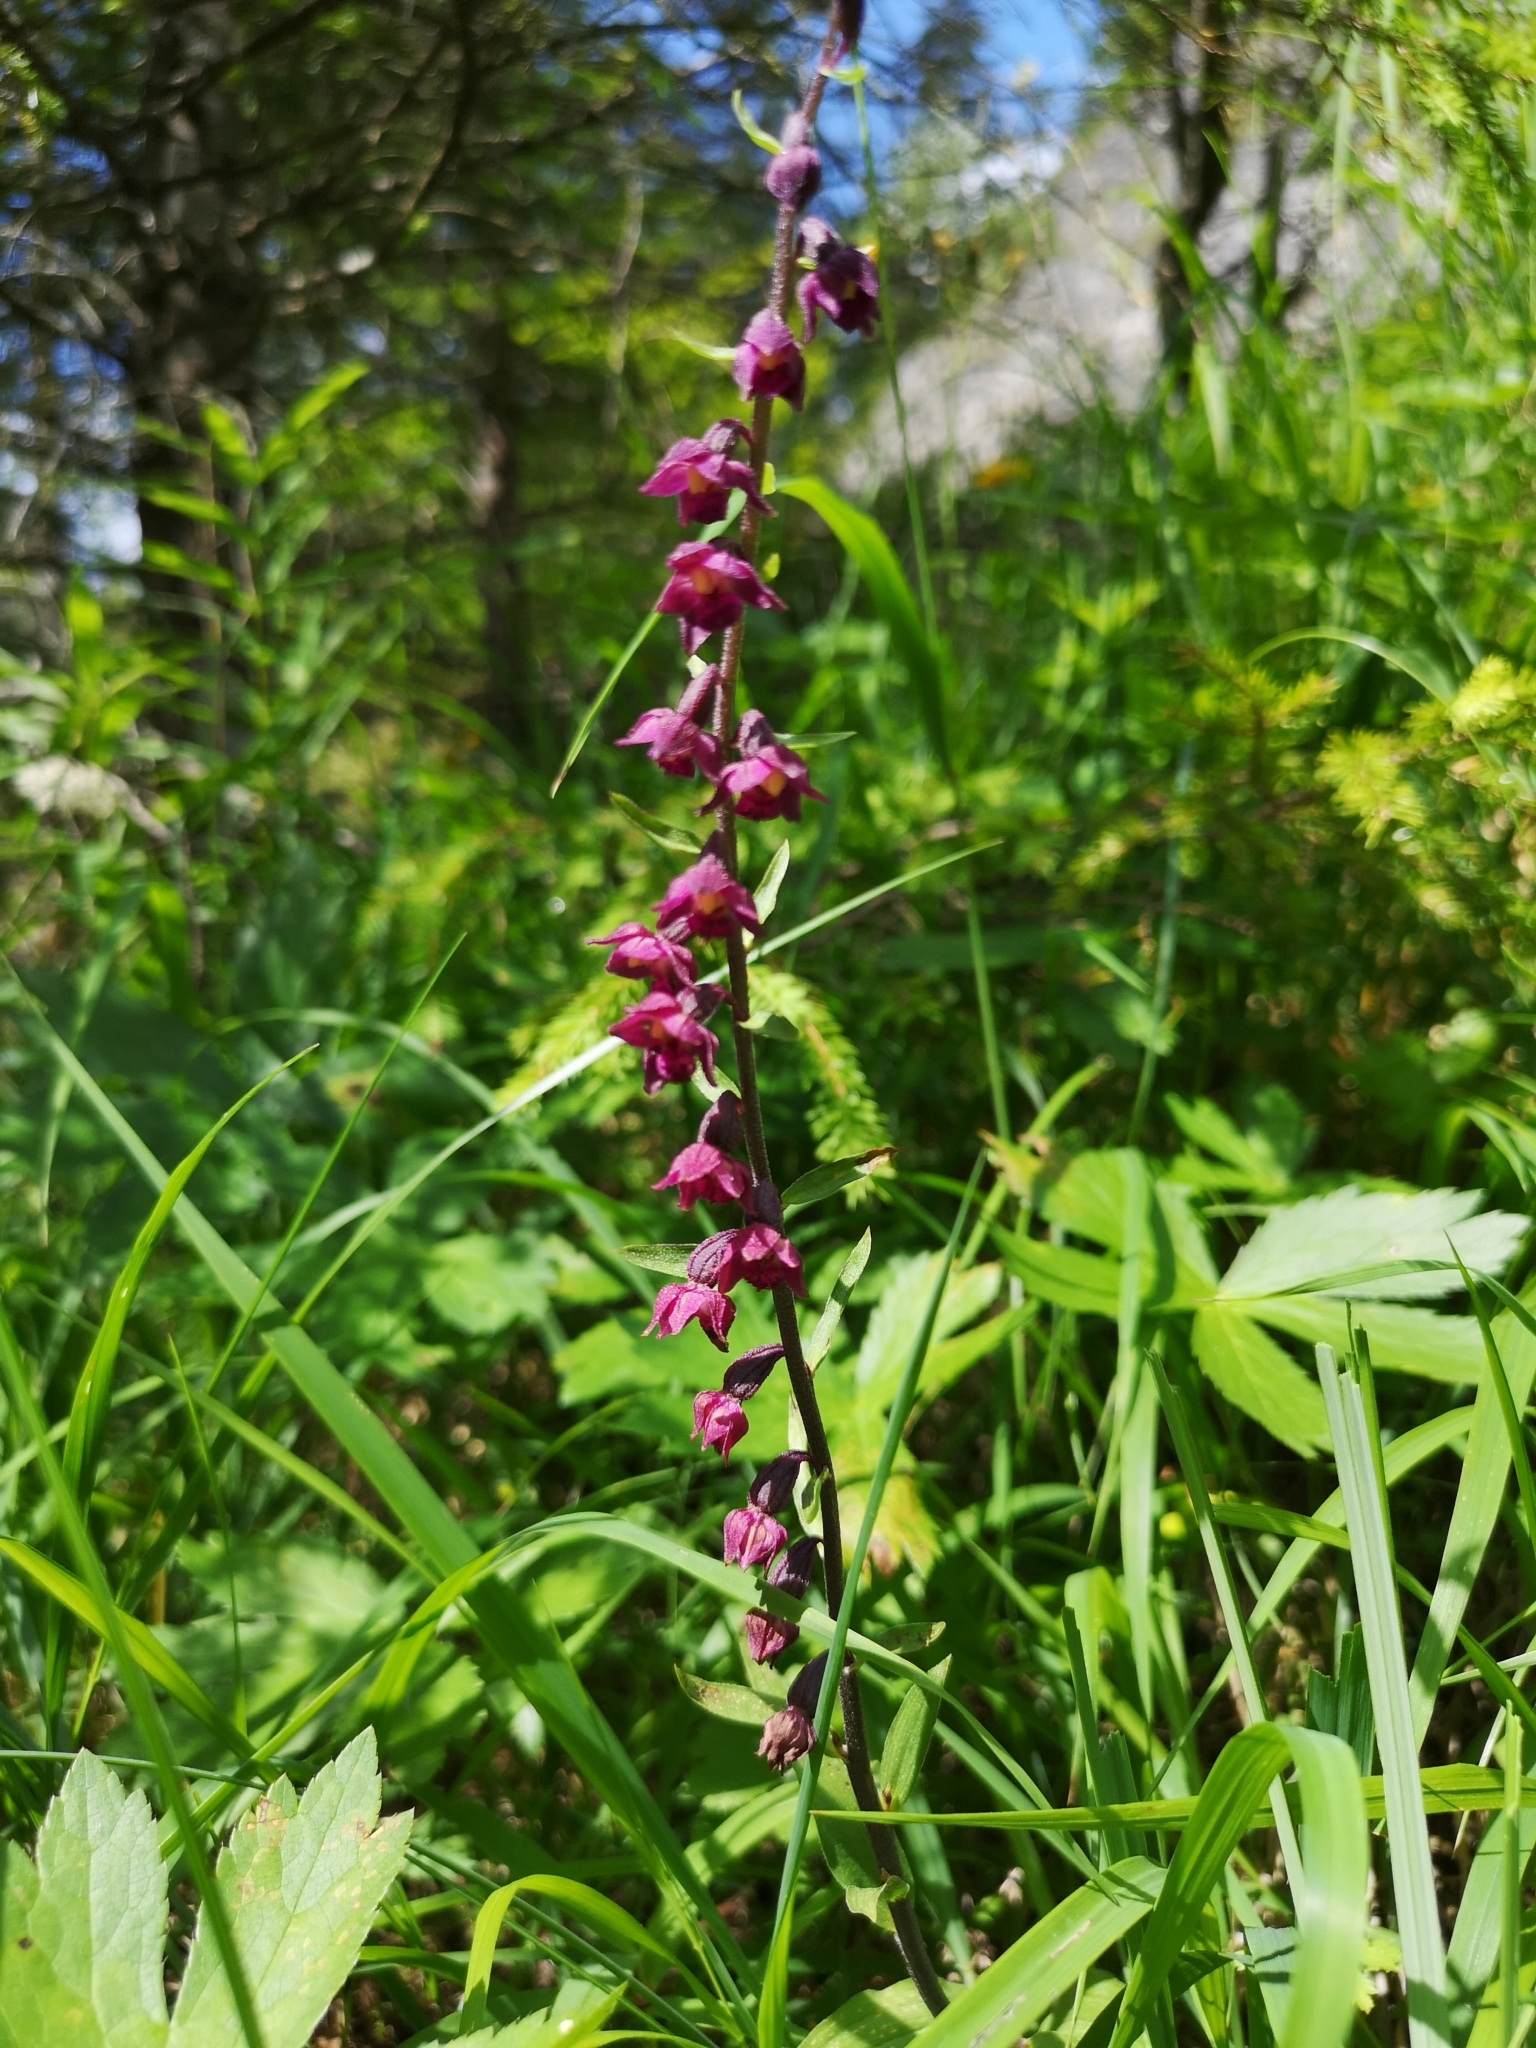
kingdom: Plantae
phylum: Tracheophyta
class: Liliopsida
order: Asparagales
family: Orchidaceae
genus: Epipactis
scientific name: Epipactis atrorubens
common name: Dark-red helleborine
